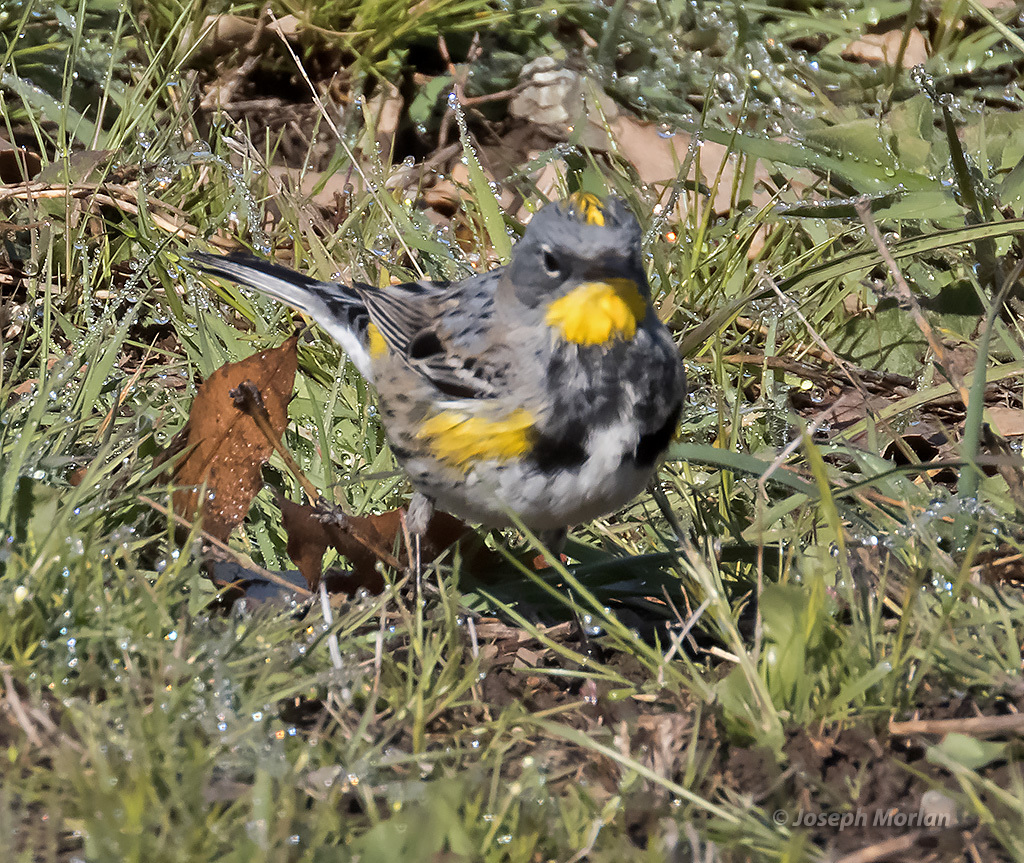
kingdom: Animalia
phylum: Chordata
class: Aves
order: Passeriformes
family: Parulidae
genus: Setophaga
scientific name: Setophaga coronata
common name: Myrtle warbler
